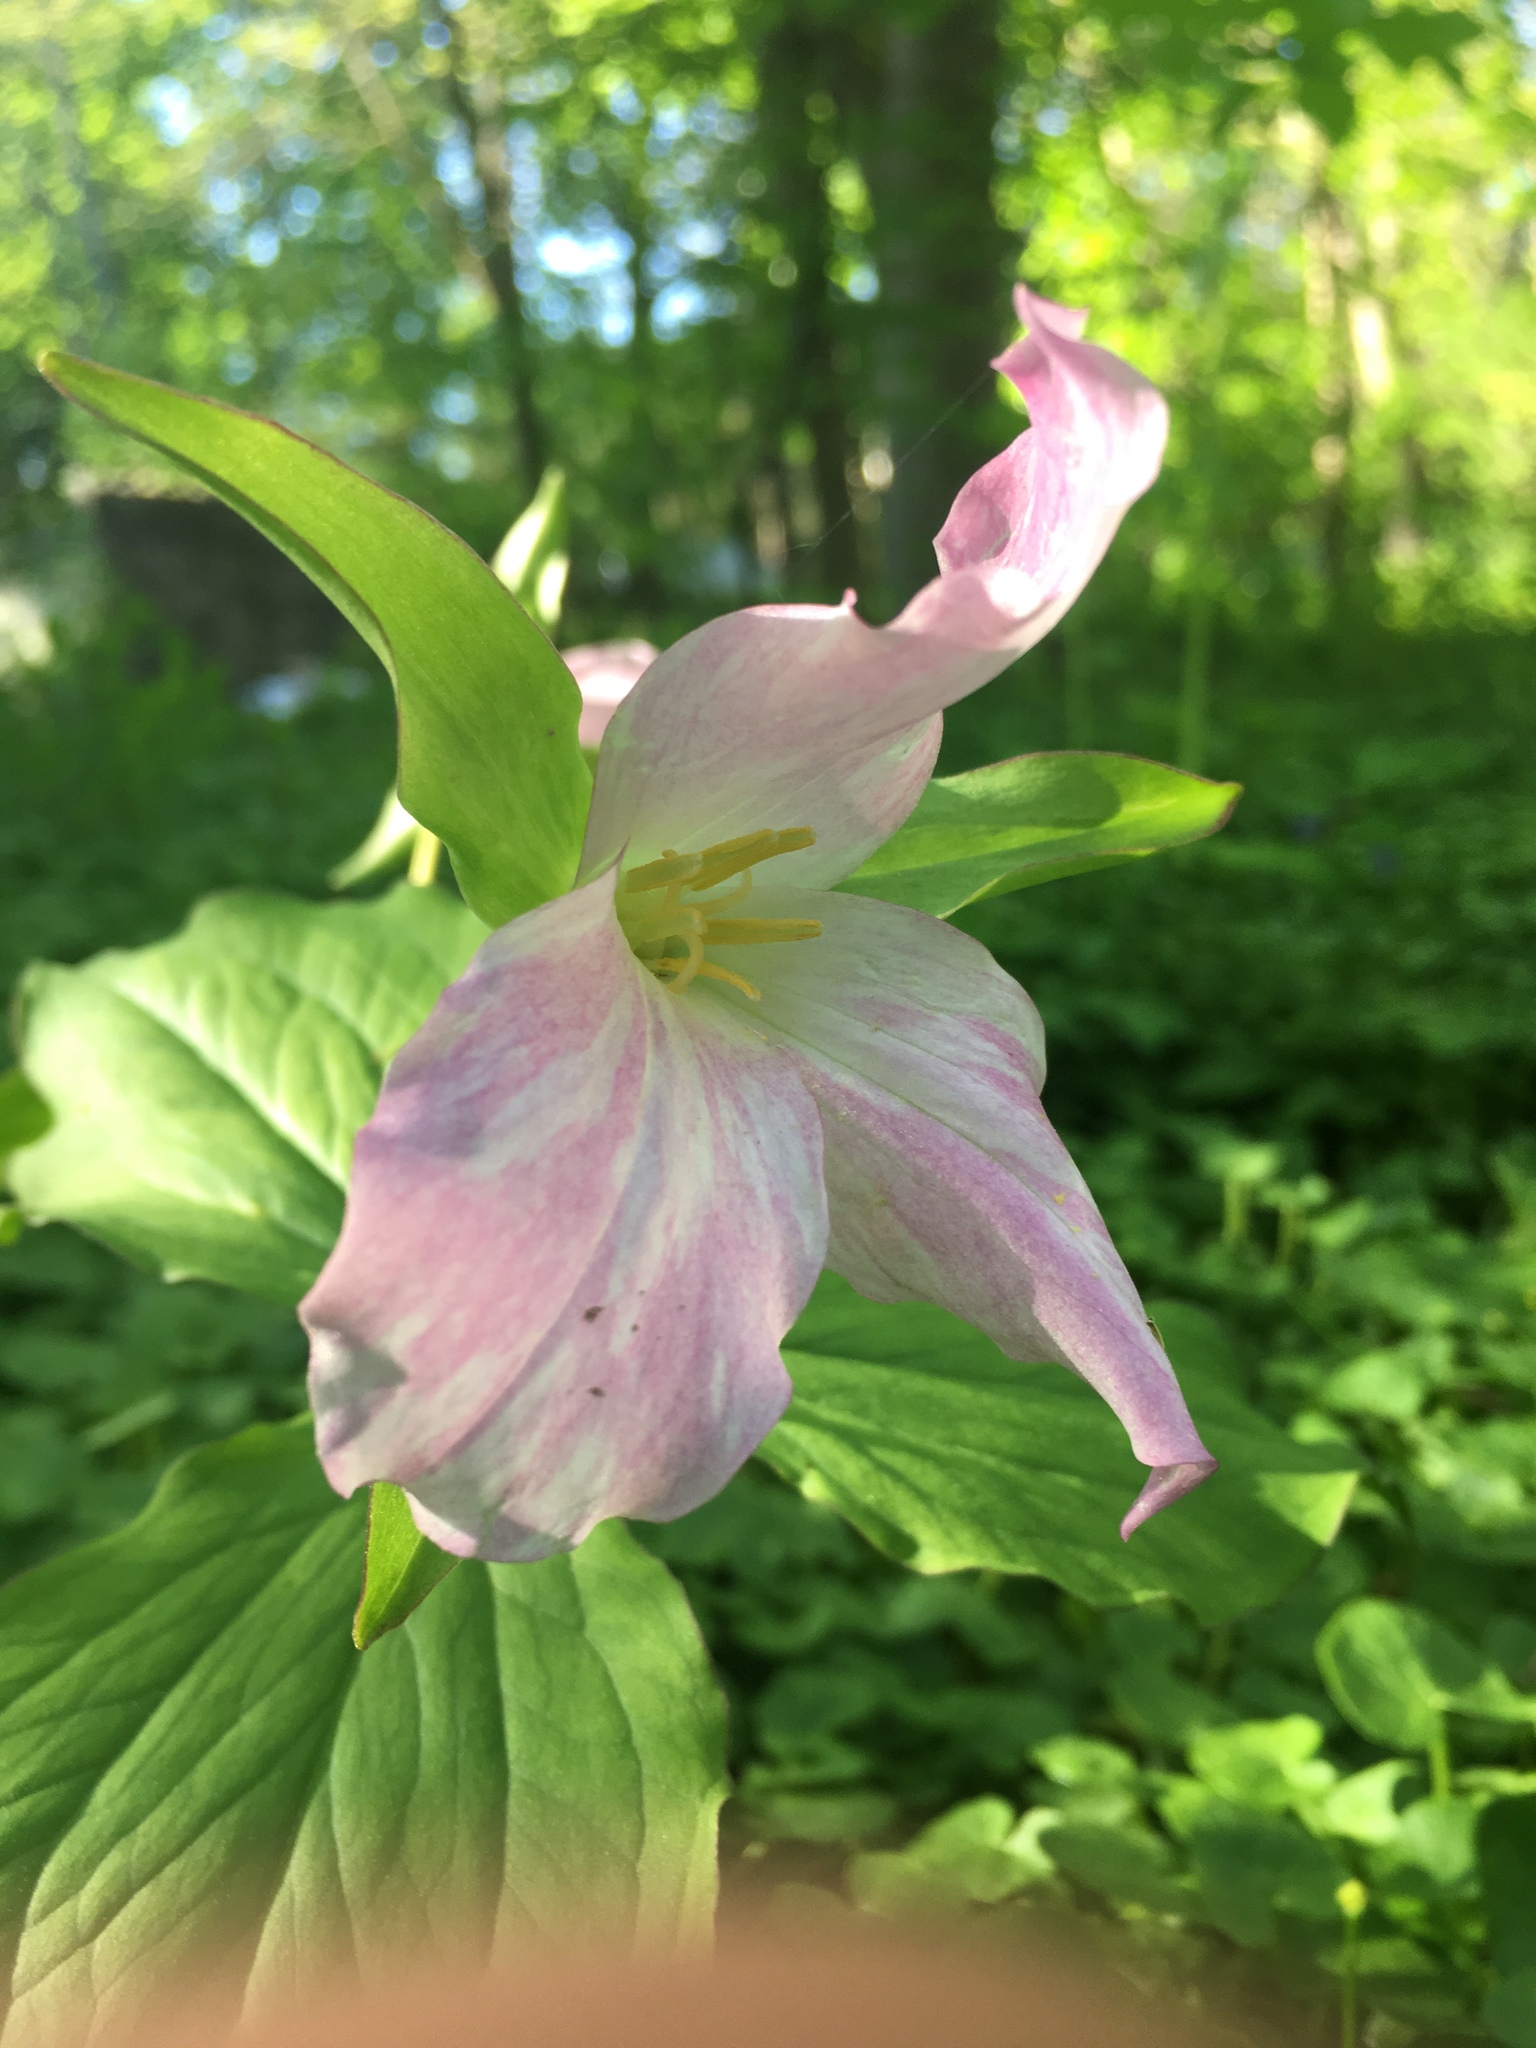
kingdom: Plantae
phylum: Tracheophyta
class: Liliopsida
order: Liliales
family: Melanthiaceae
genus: Trillium
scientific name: Trillium grandiflorum
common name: Great white trillium
